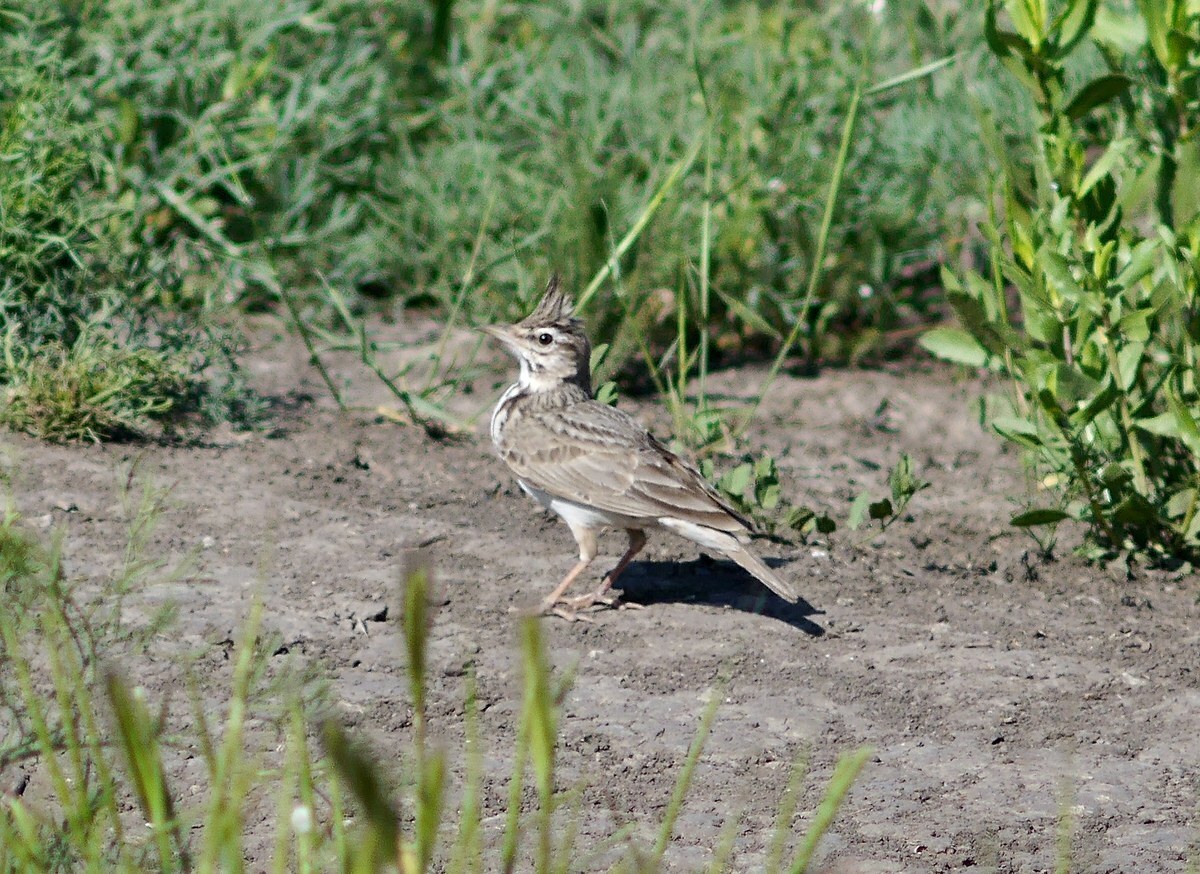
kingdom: Animalia
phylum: Chordata
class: Aves
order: Passeriformes
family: Alaudidae
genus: Galerida
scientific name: Galerida cristata
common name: Crested lark
